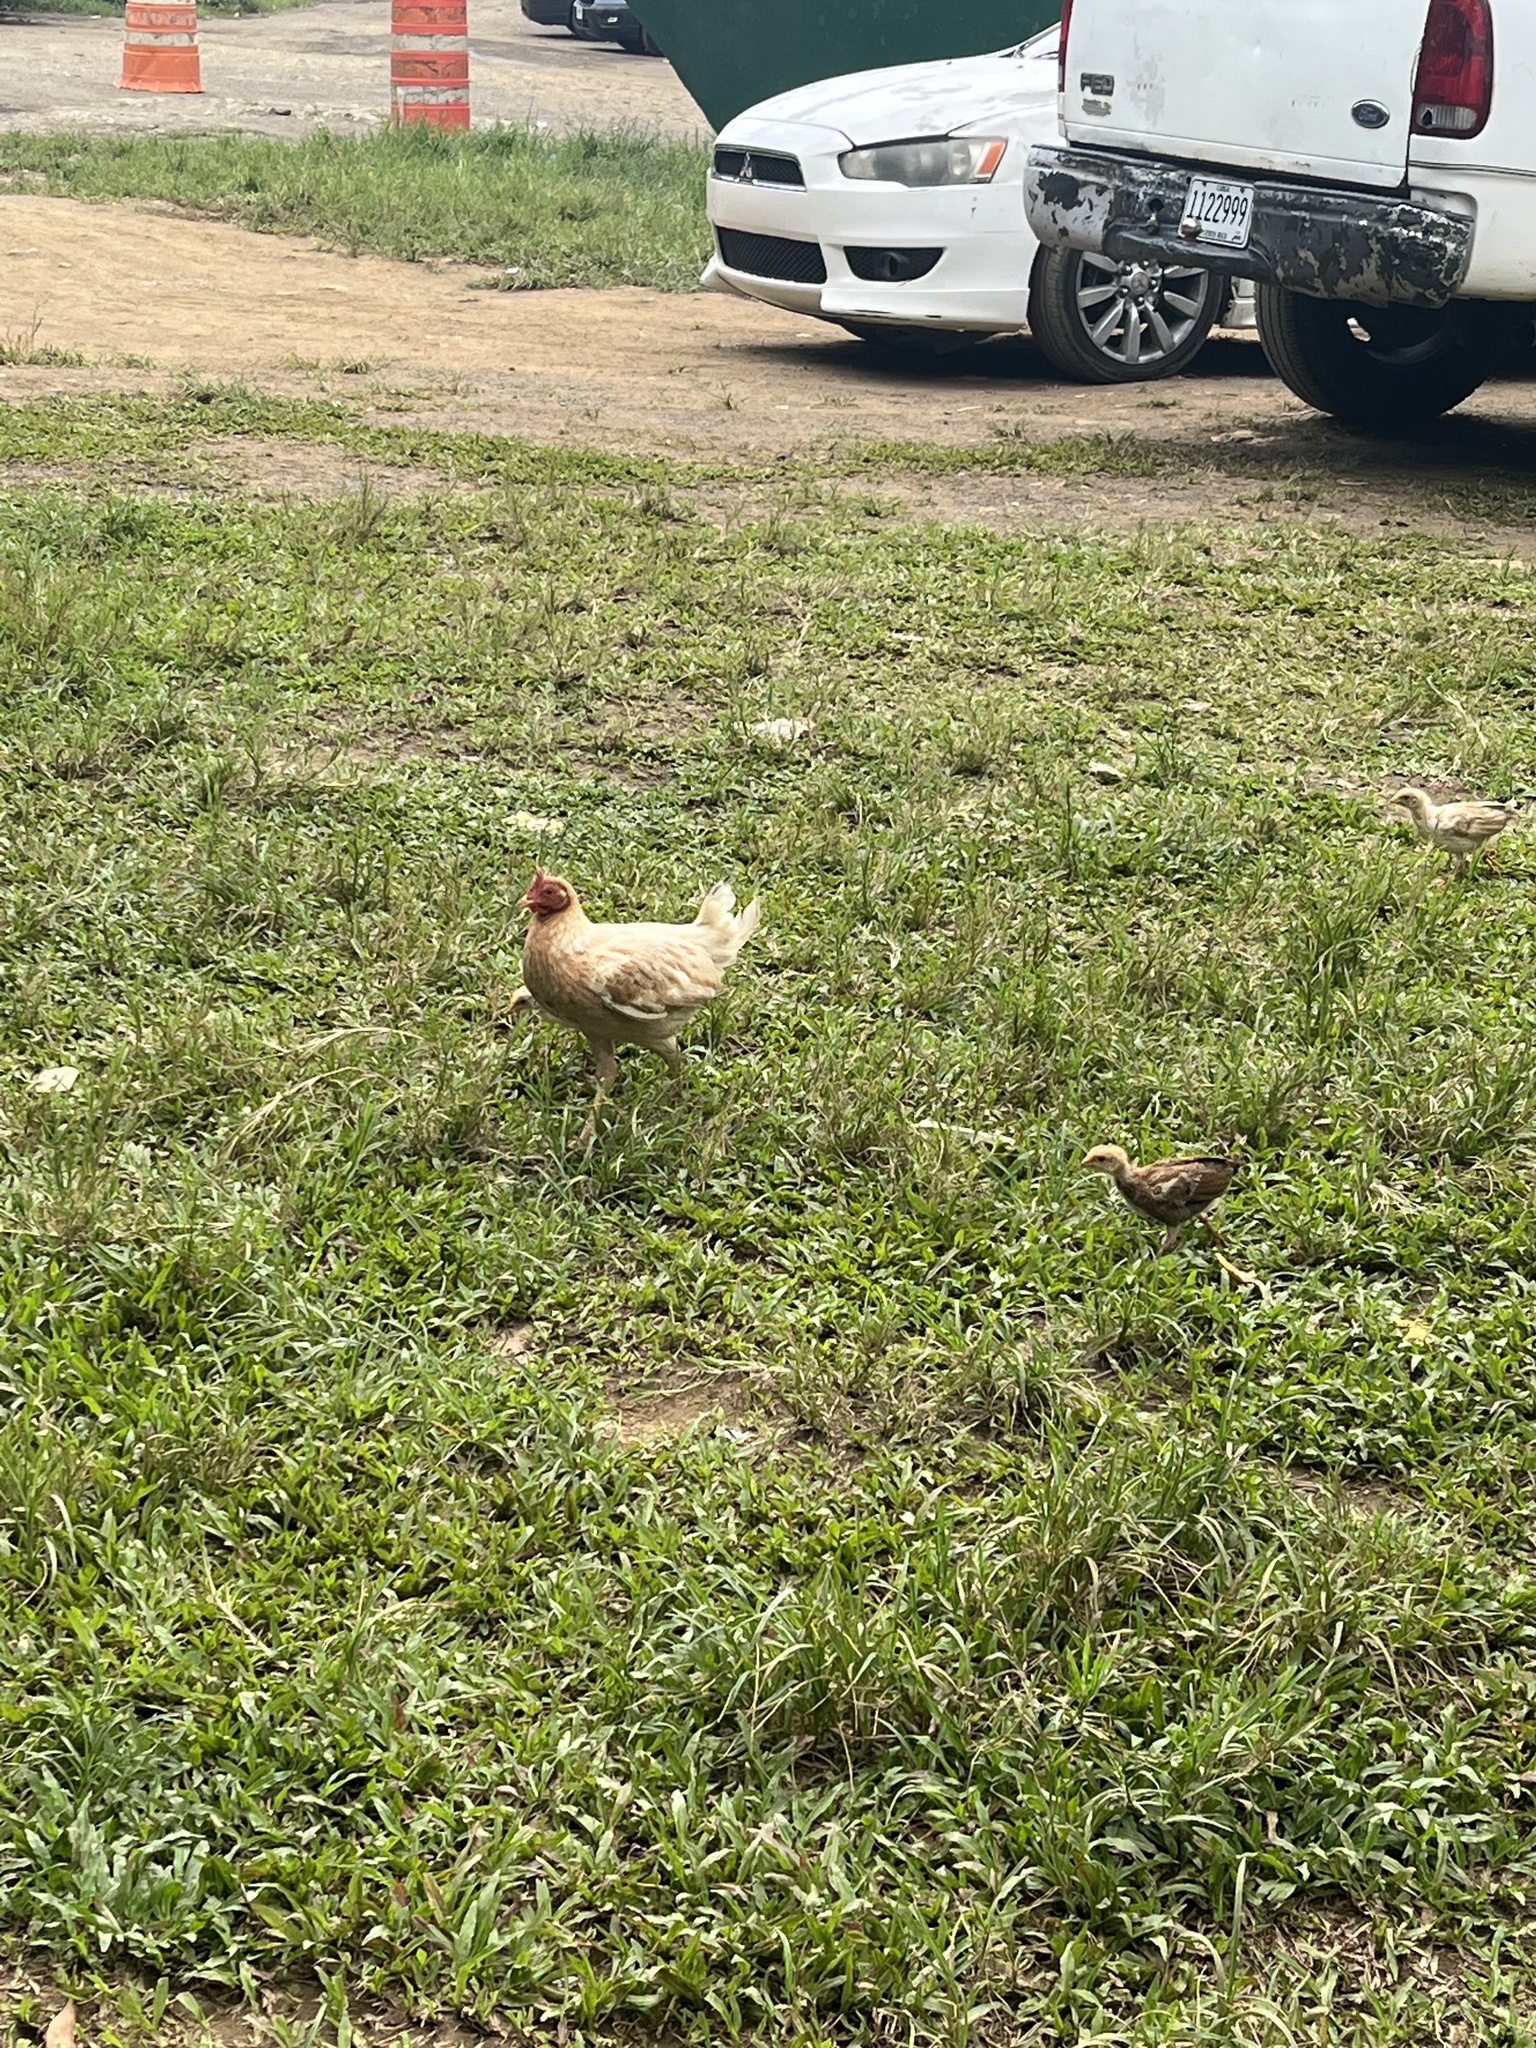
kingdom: Animalia
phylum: Chordata
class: Aves
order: Galliformes
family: Phasianidae
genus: Gallus
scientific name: Gallus gallus
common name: Red junglefowl
